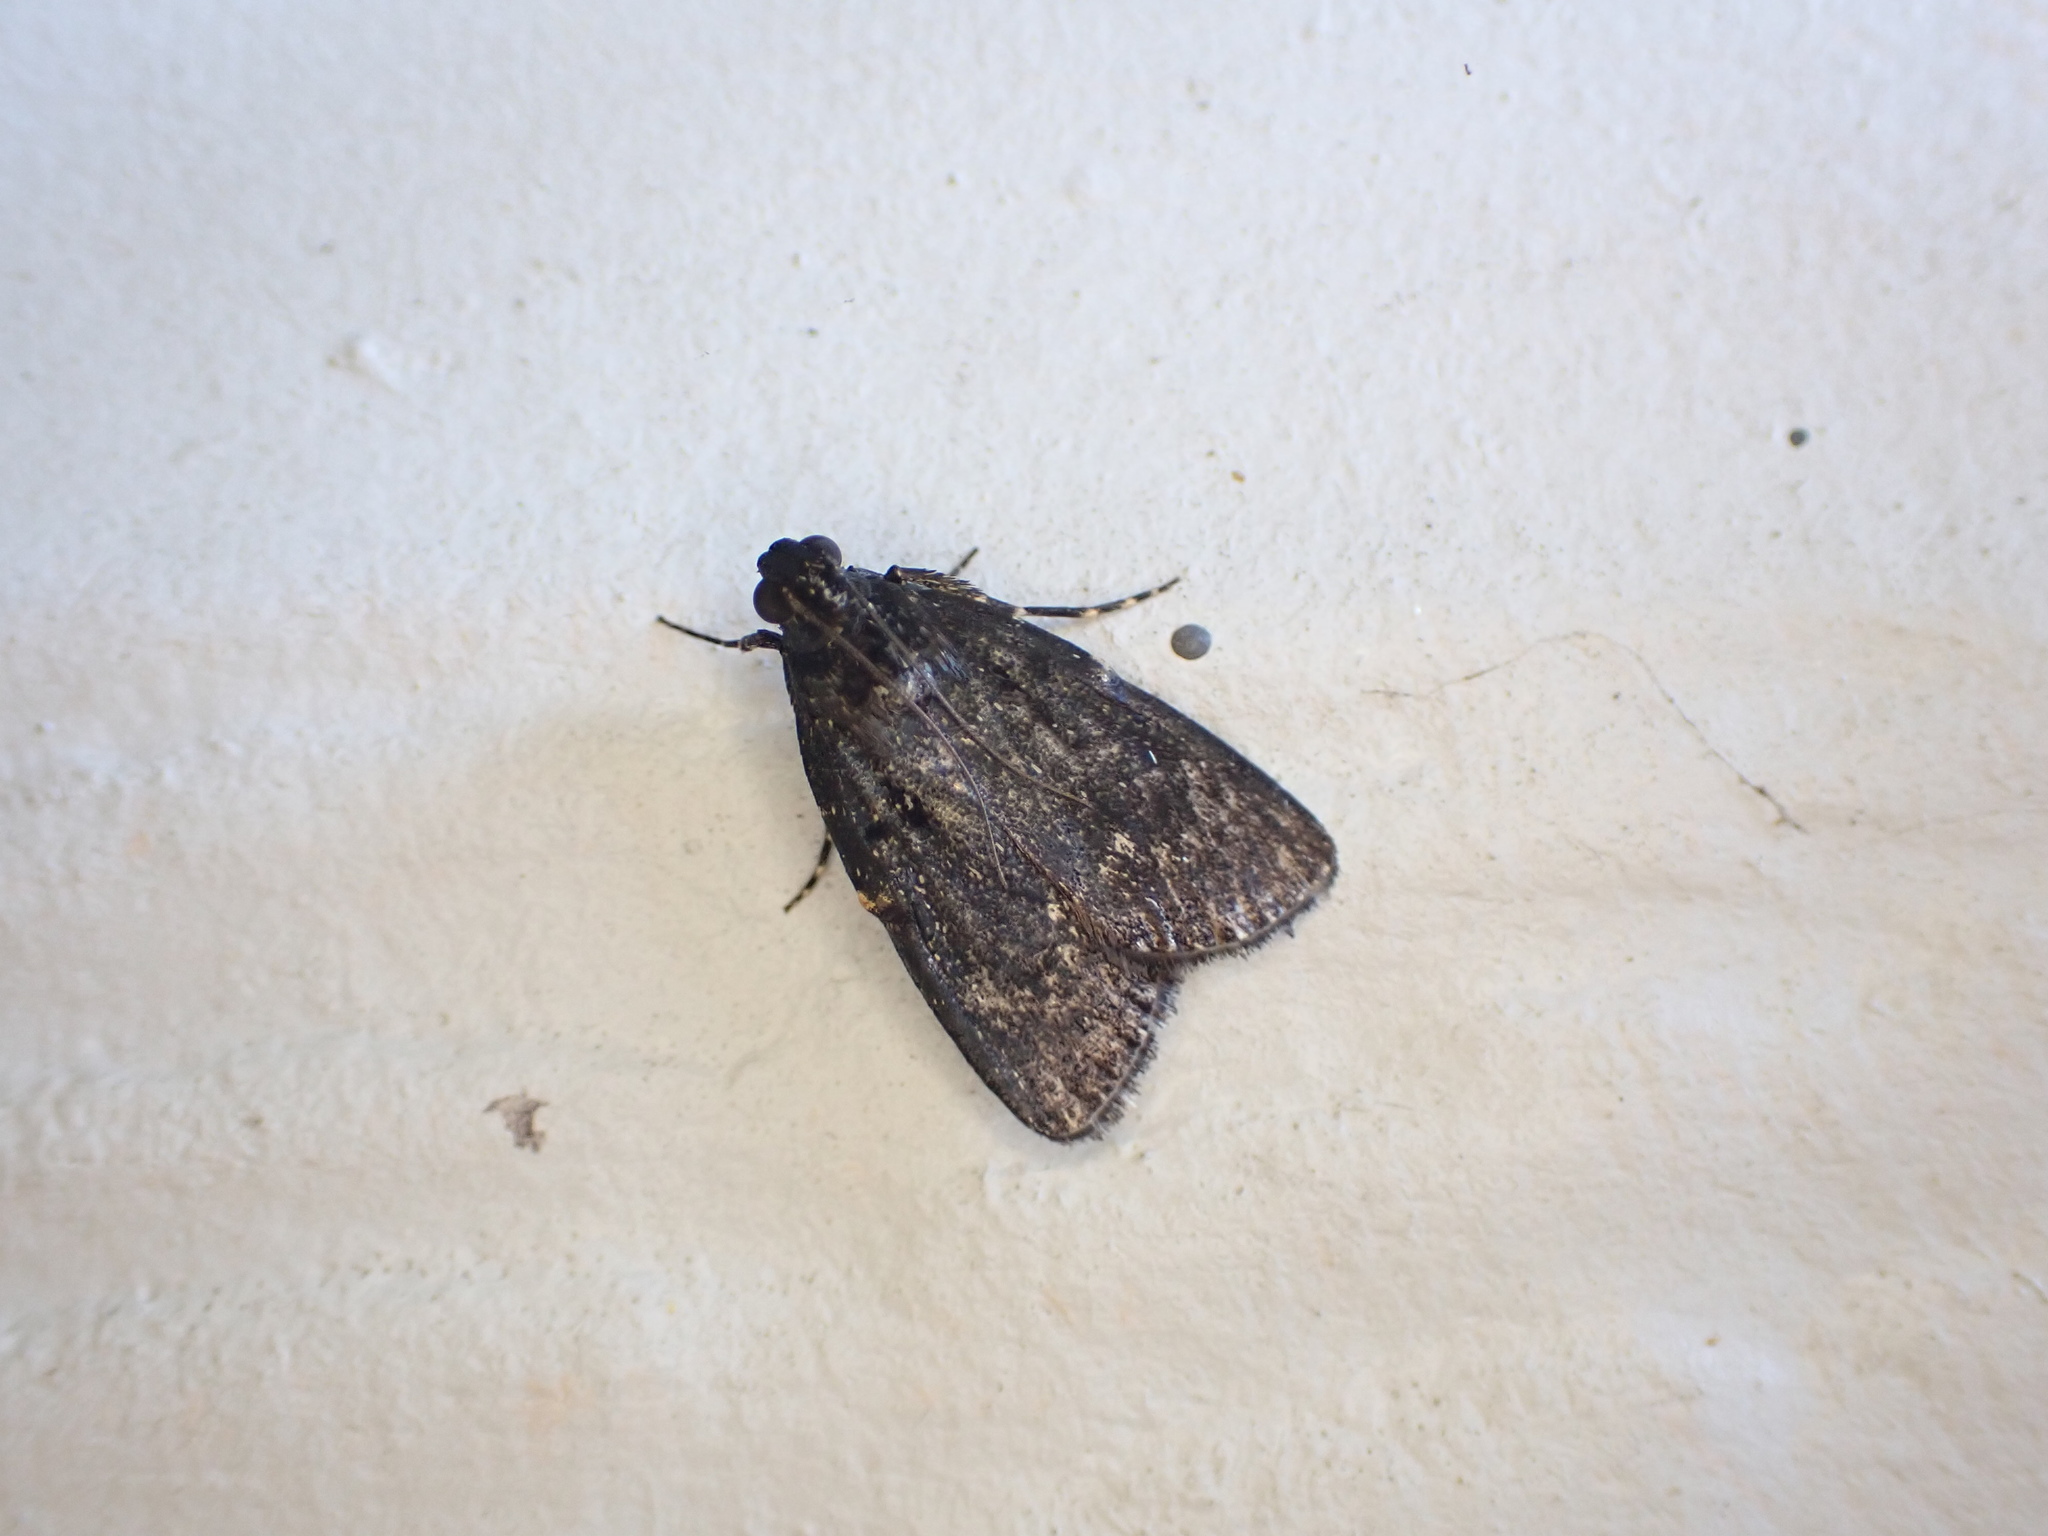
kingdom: Animalia
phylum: Arthropoda
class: Insecta
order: Lepidoptera
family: Pyralidae
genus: Stericta
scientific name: Stericta carbonalis
